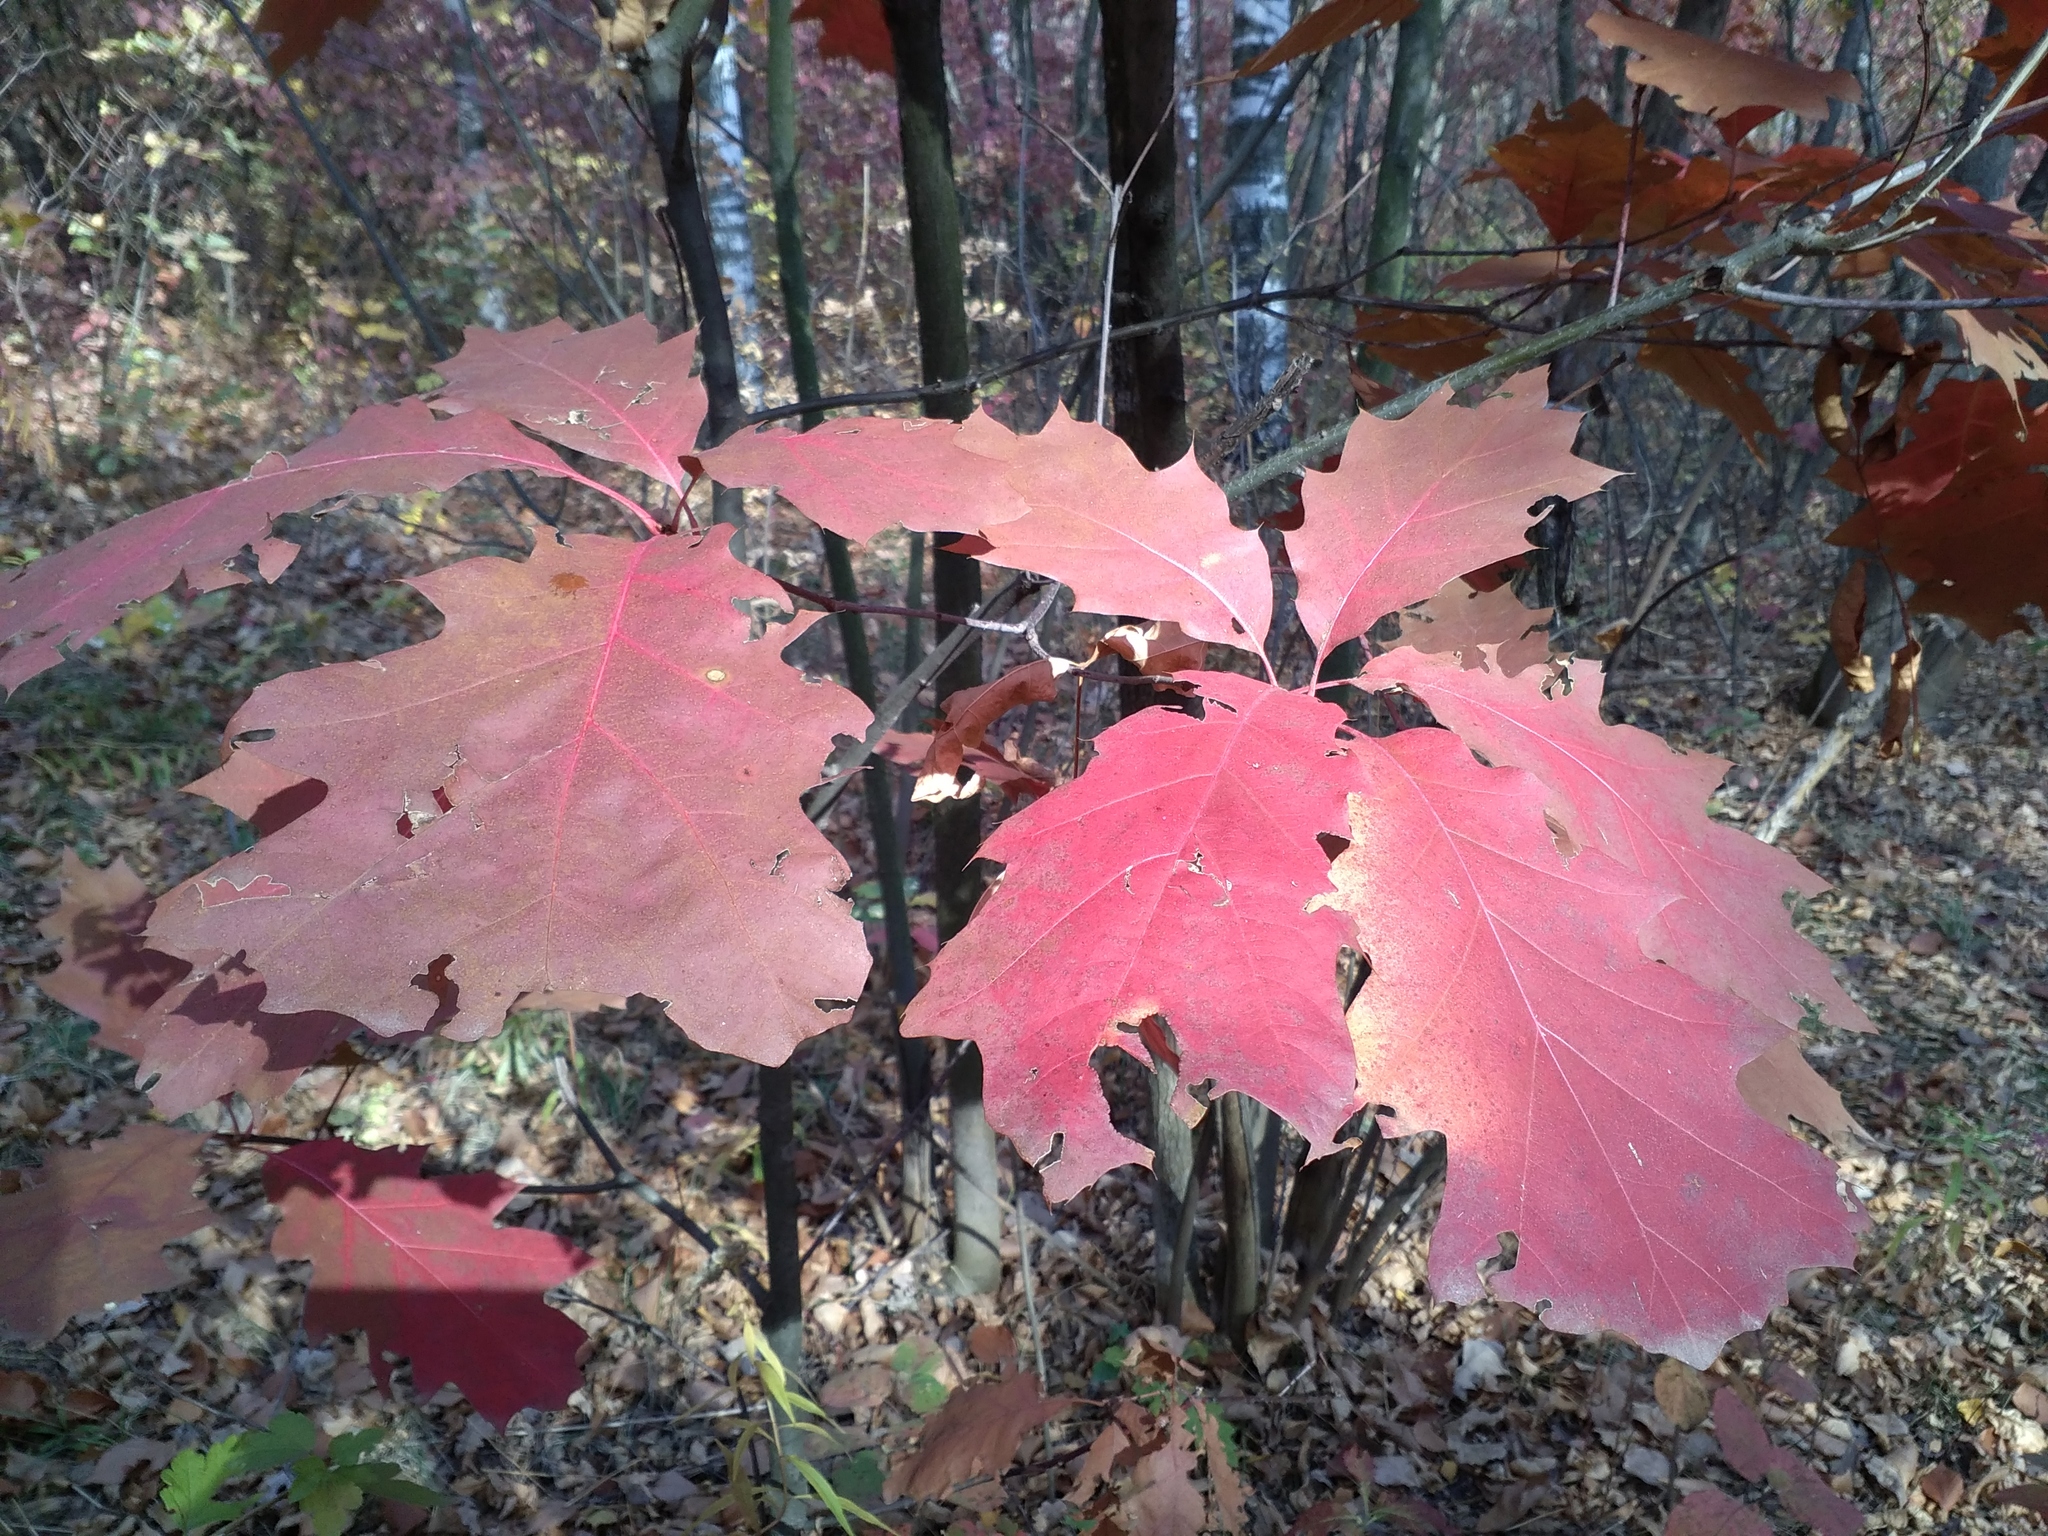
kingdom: Plantae
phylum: Tracheophyta
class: Magnoliopsida
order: Fagales
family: Fagaceae
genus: Quercus
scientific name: Quercus rubra
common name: Red oak
